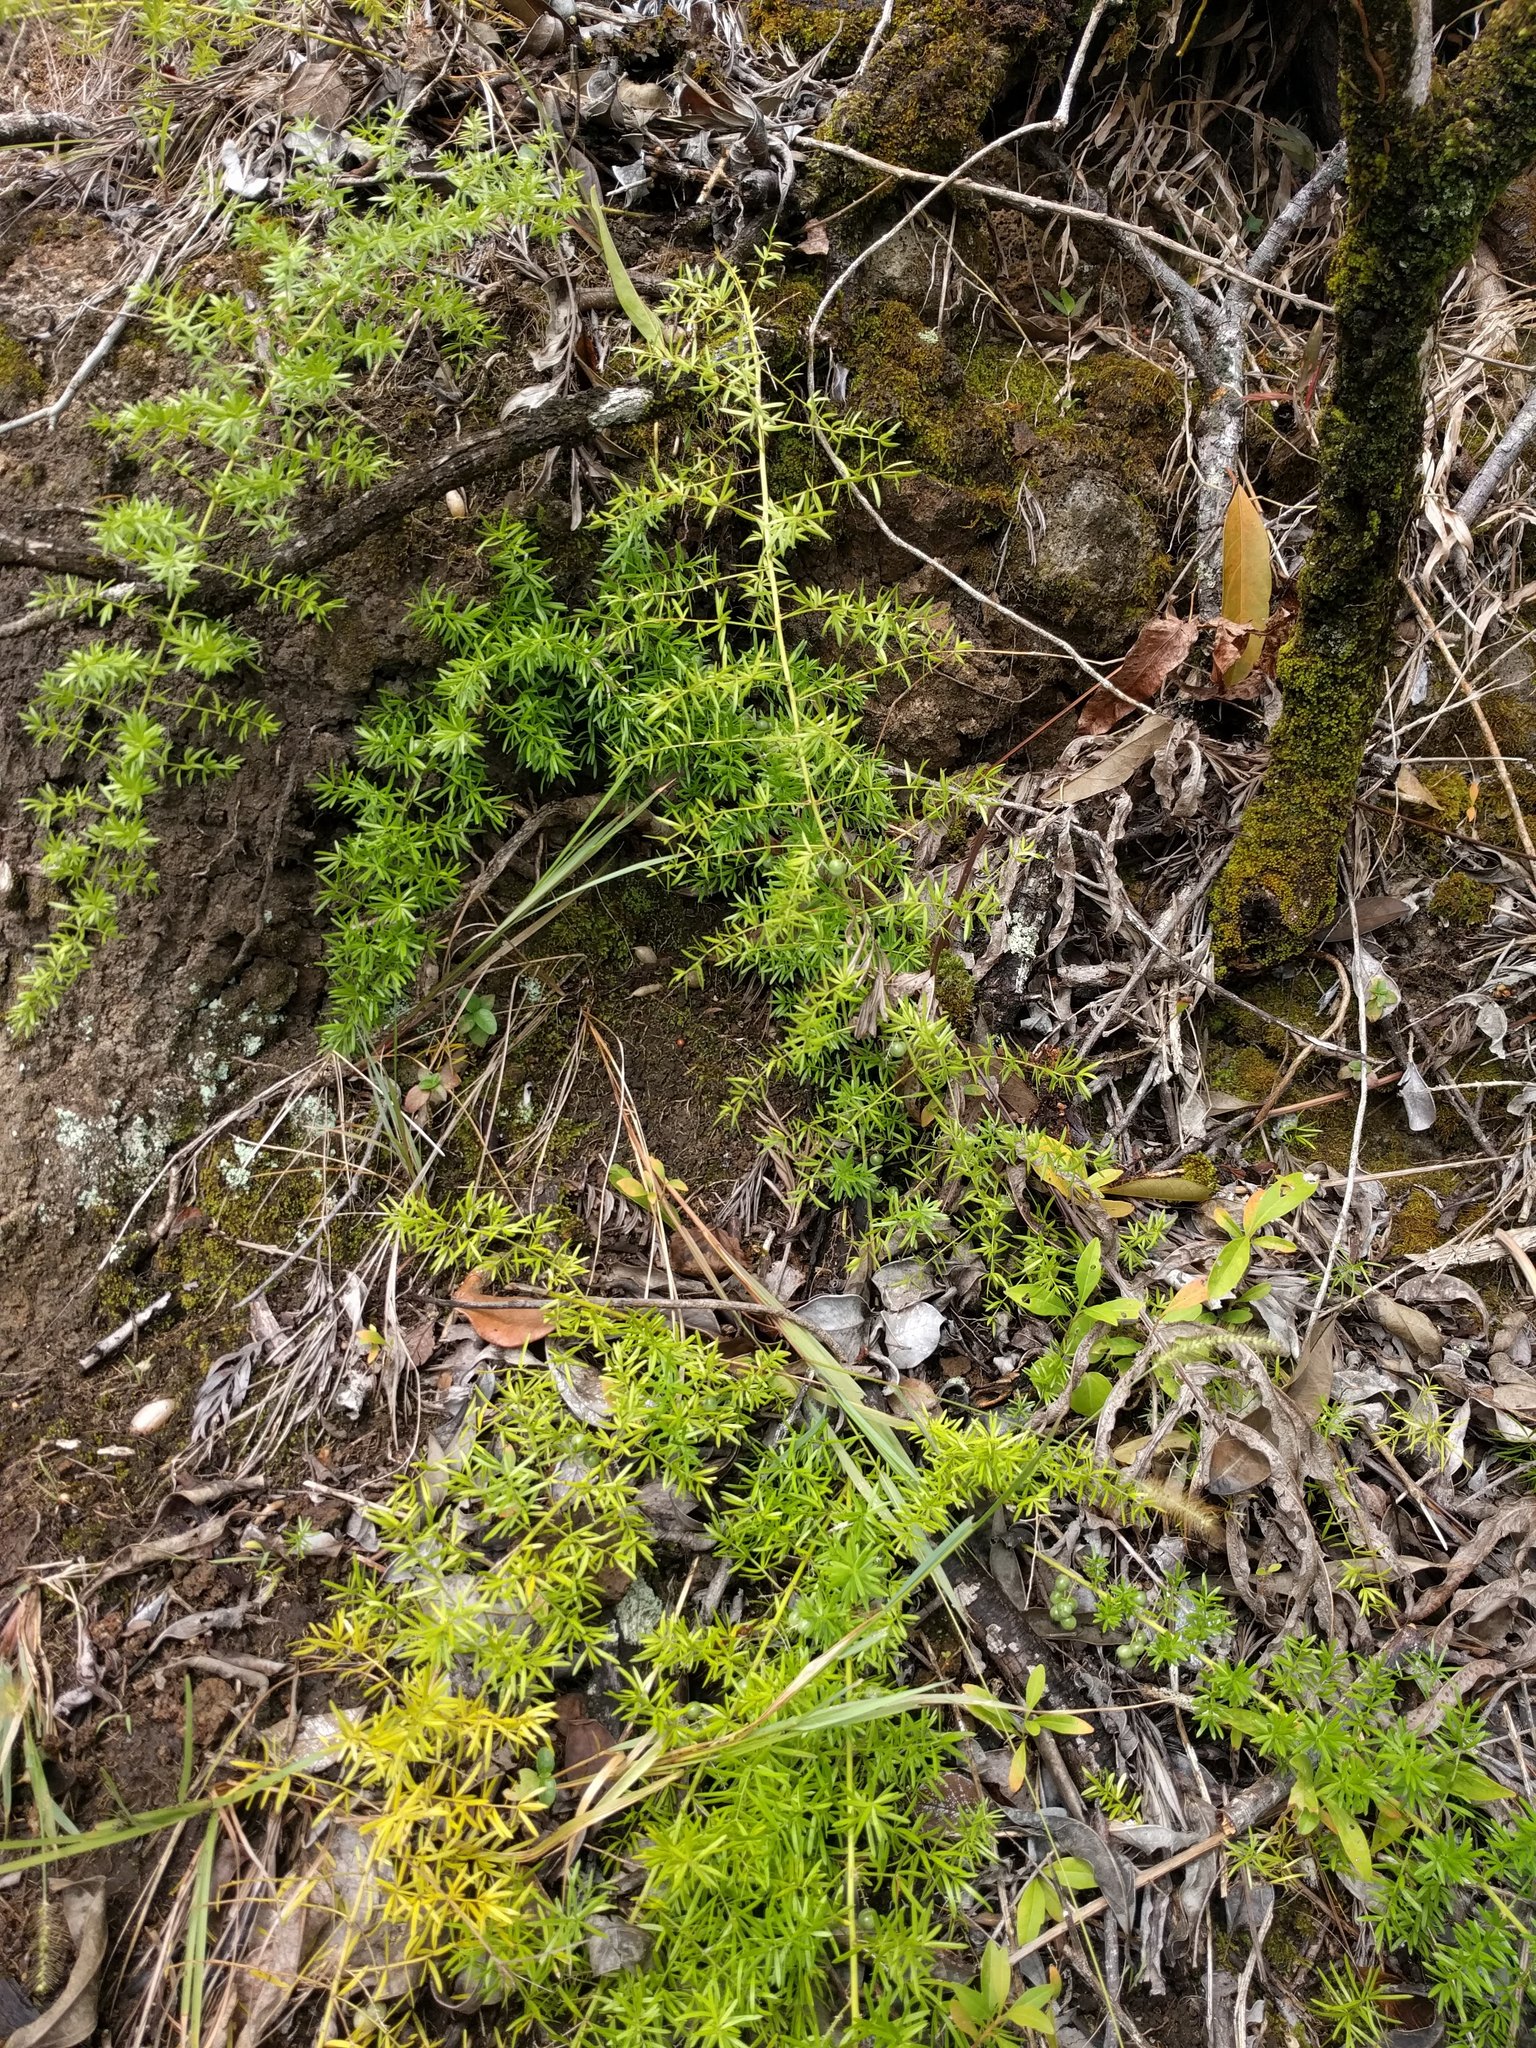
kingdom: Plantae
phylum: Tracheophyta
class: Liliopsida
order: Asparagales
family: Asparagaceae
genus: Asparagus
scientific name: Asparagus aethiopicus
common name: Sprenger's asparagus fern
